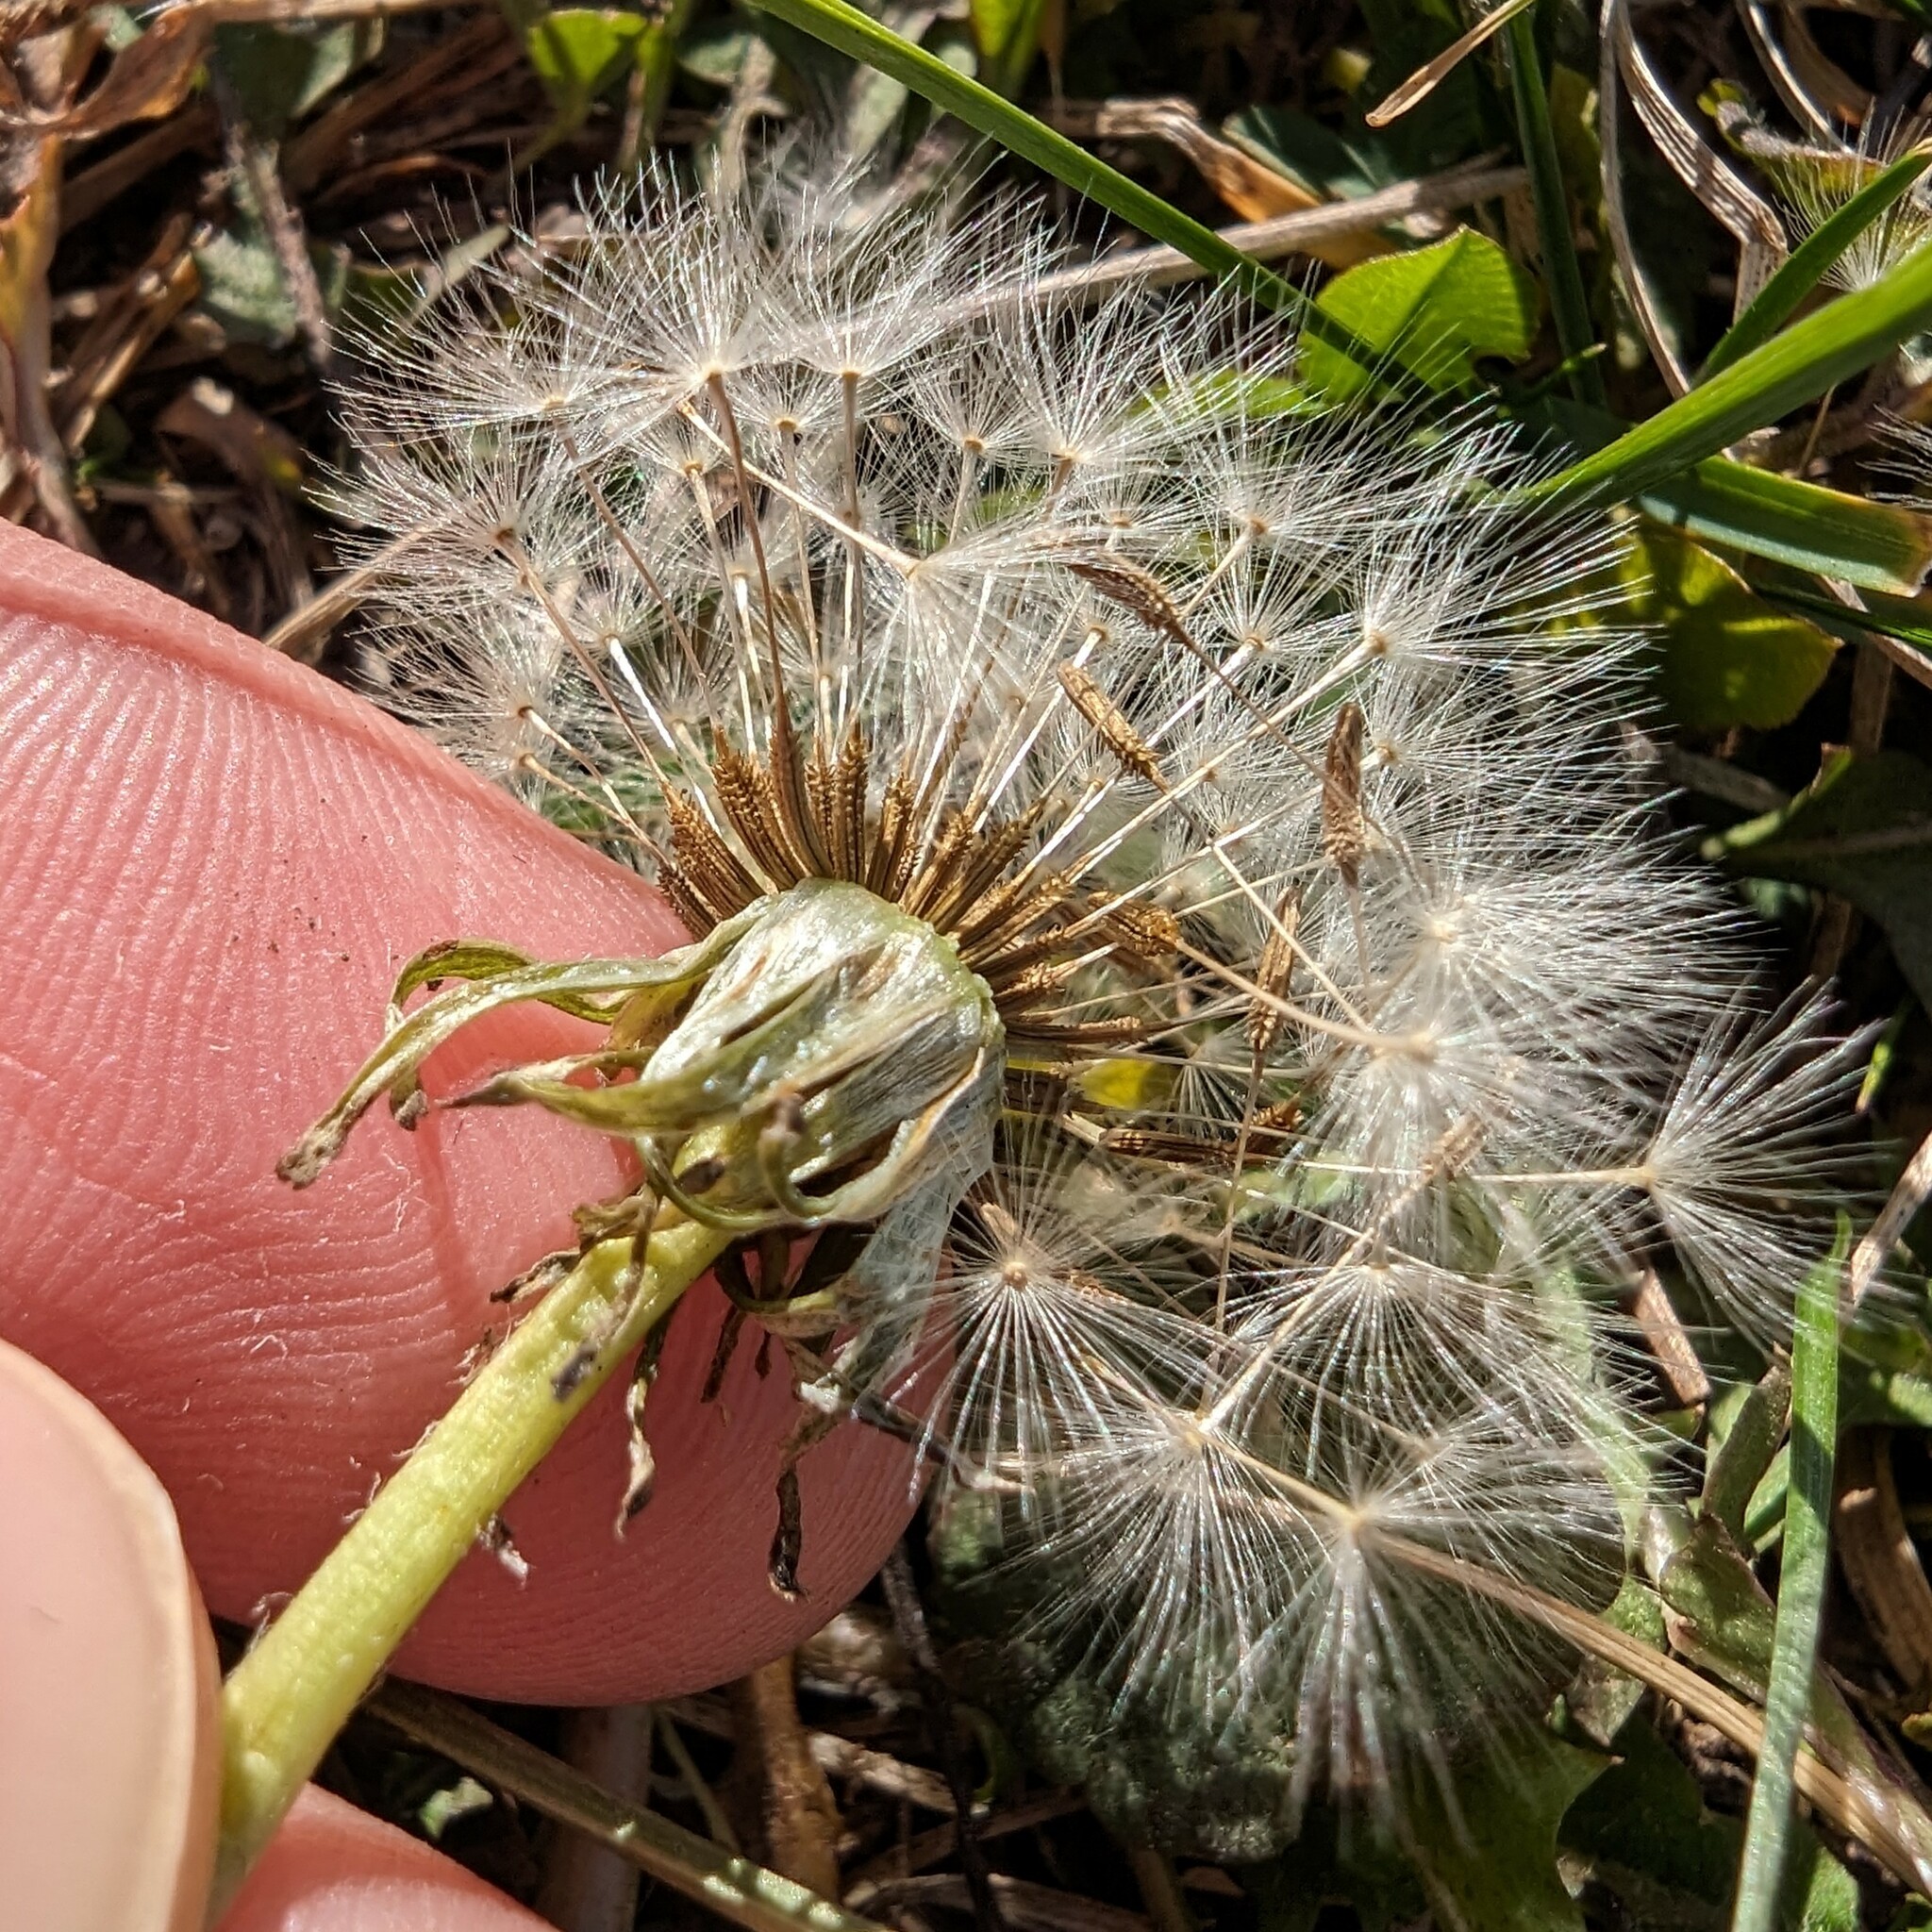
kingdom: Plantae
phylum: Tracheophyta
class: Magnoliopsida
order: Asterales
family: Asteraceae
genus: Taraxacum
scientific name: Taraxacum officinale
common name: Common dandelion
